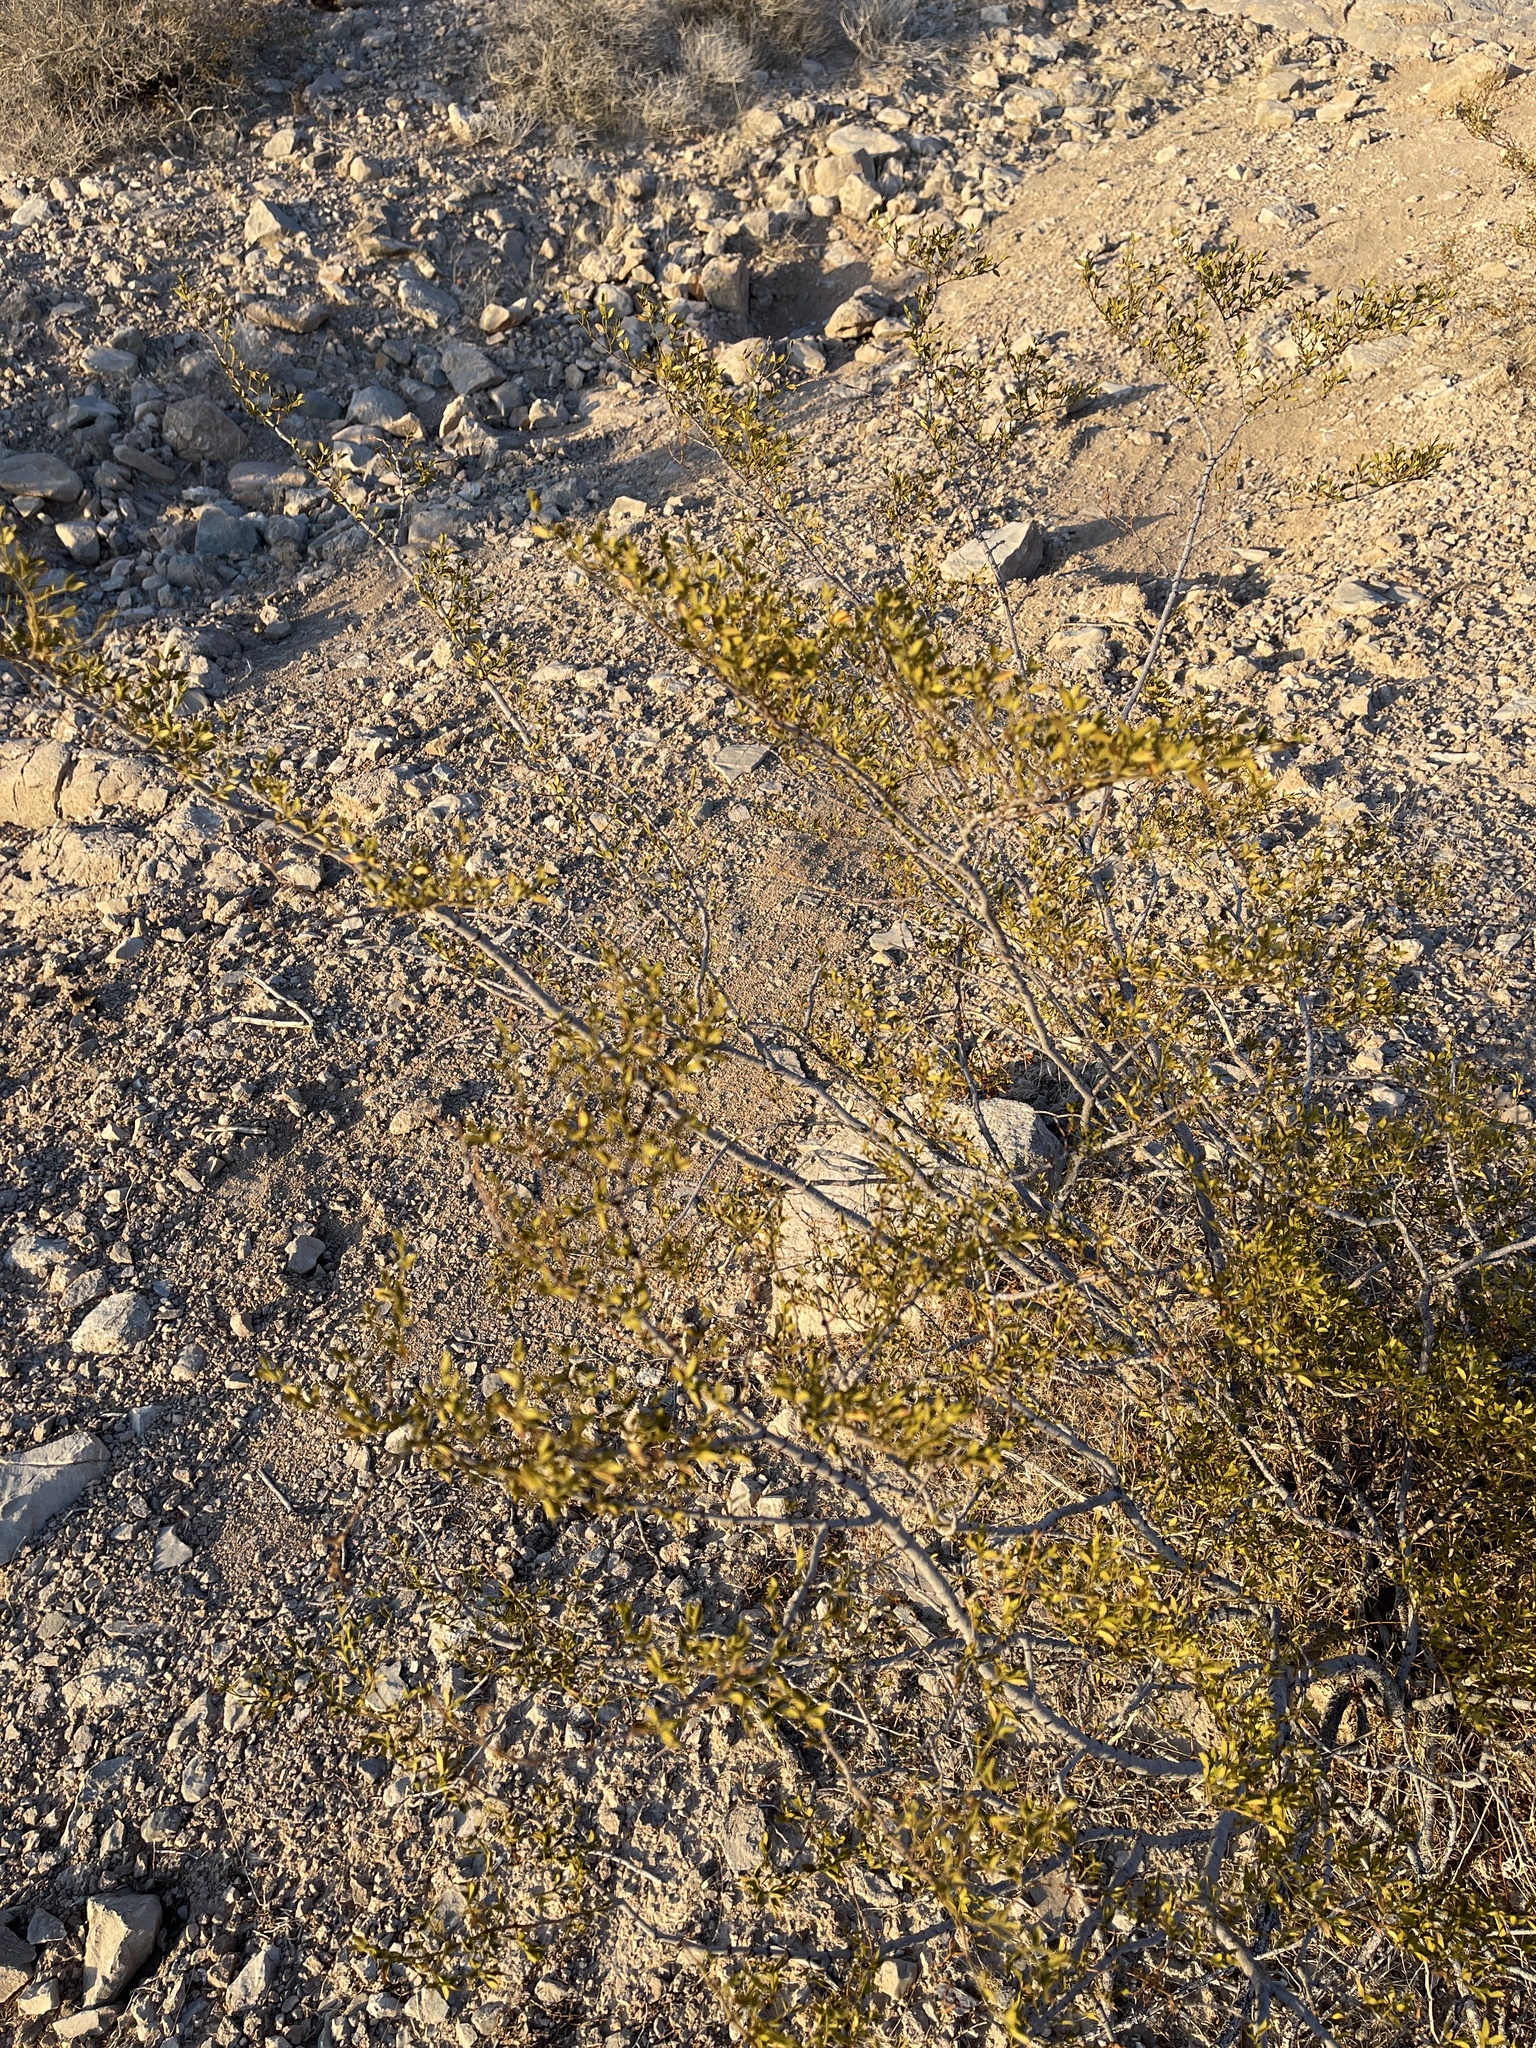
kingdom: Plantae
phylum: Tracheophyta
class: Magnoliopsida
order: Zygophyllales
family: Zygophyllaceae
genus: Larrea
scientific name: Larrea tridentata
